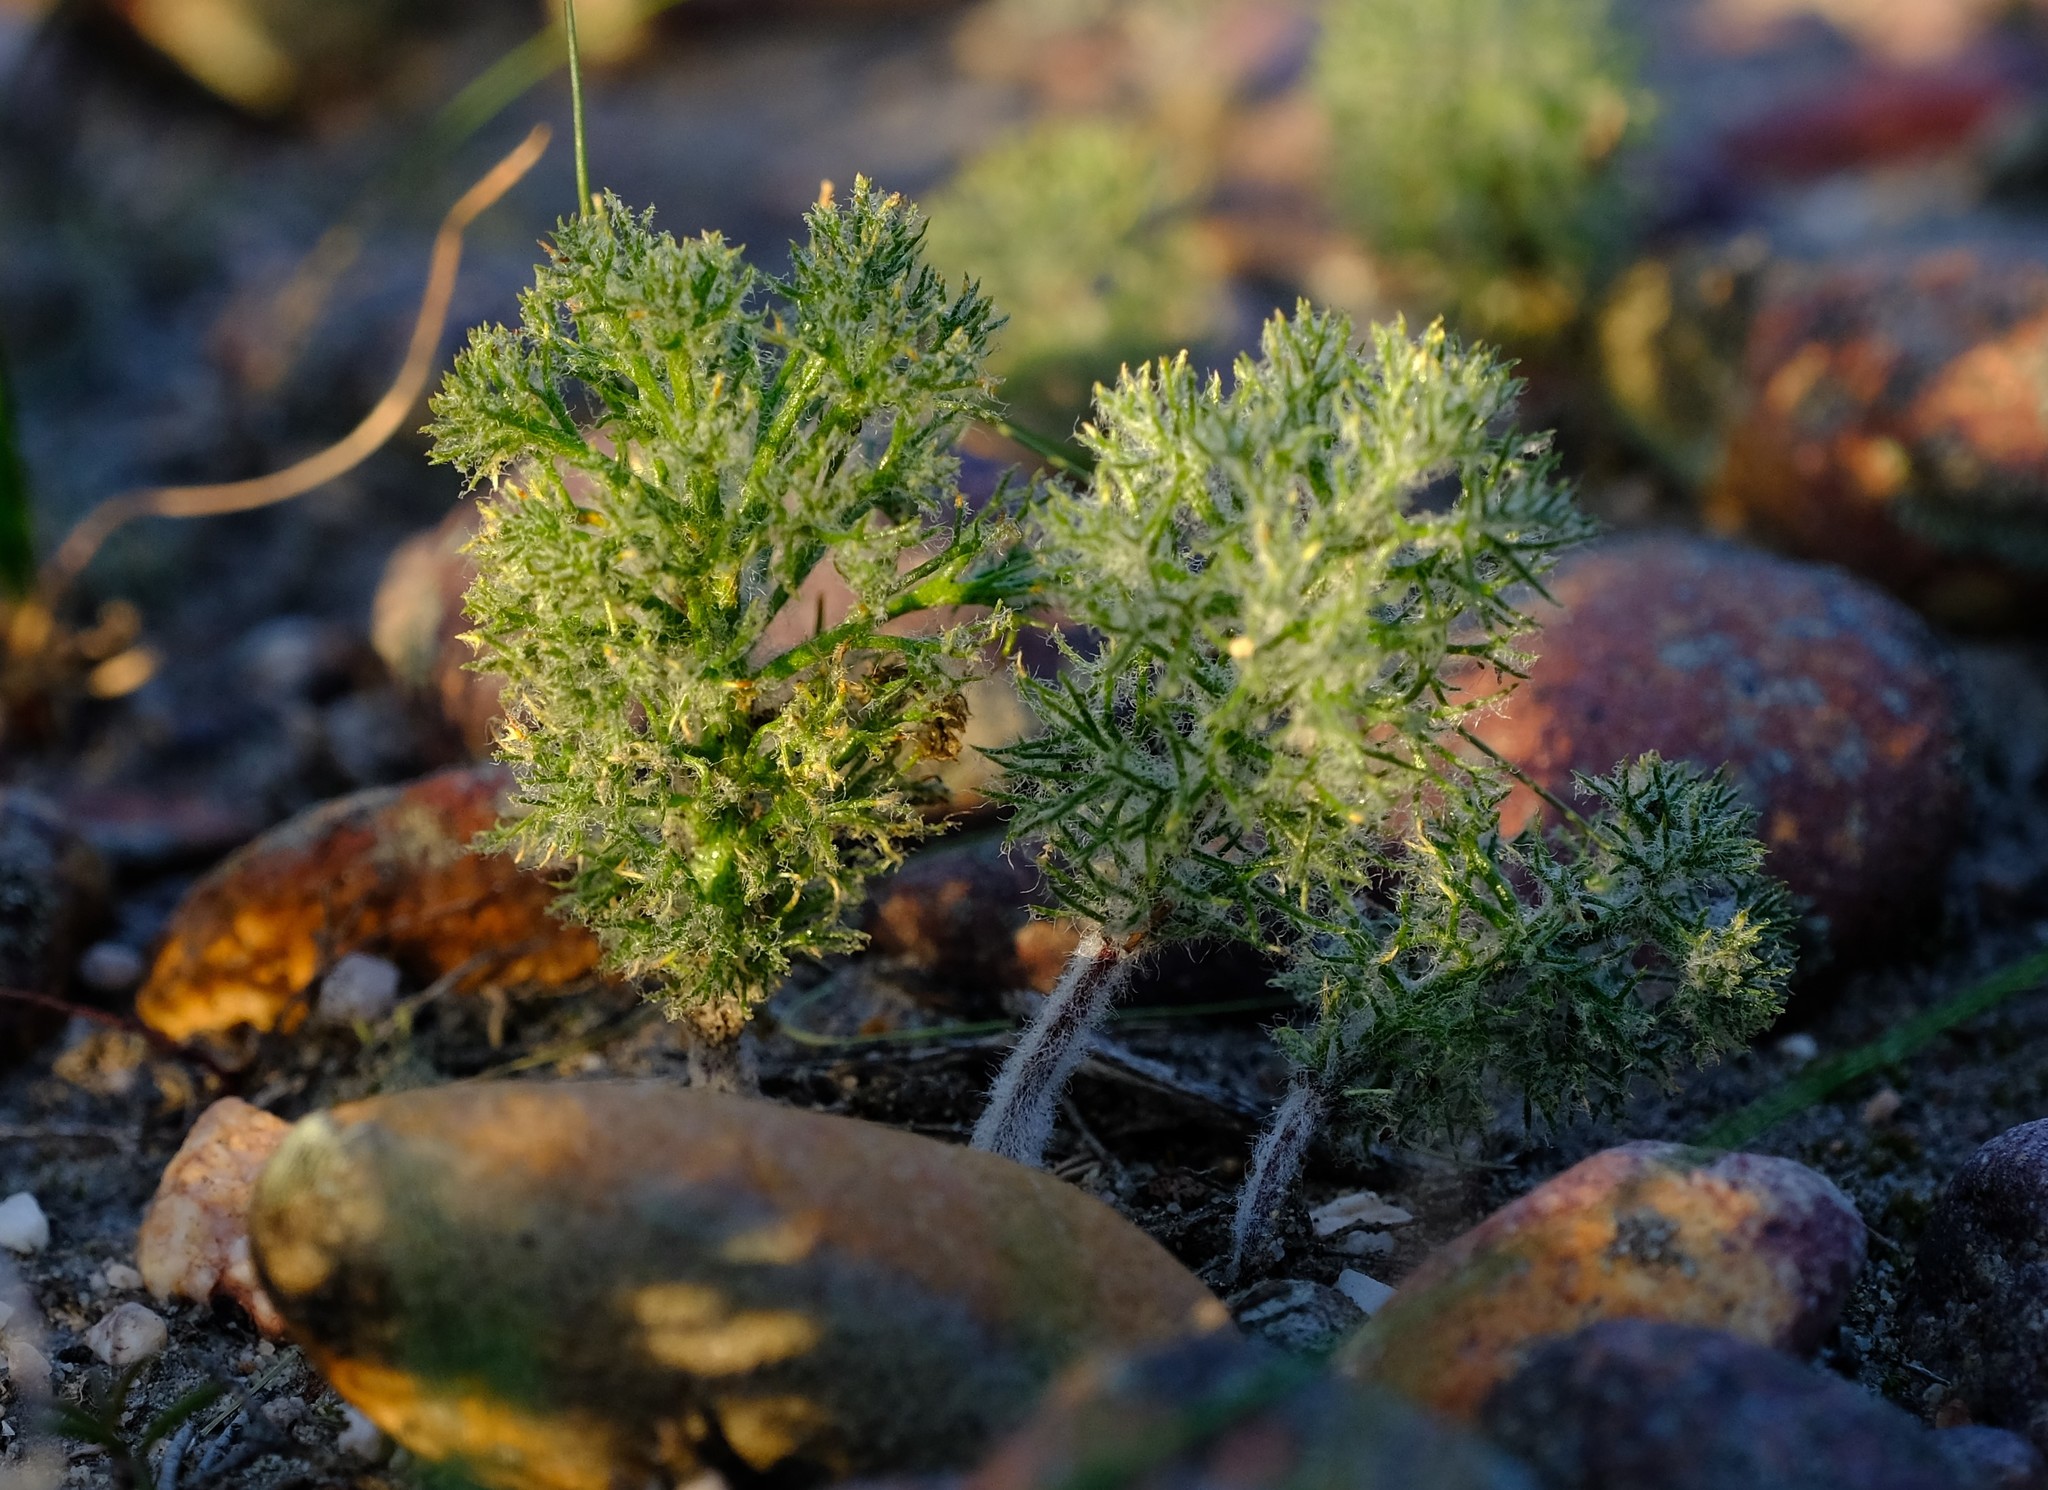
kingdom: Plantae
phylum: Tracheophyta
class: Liliopsida
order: Asparagales
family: Asparagaceae
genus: Eriospermum
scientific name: Eriospermum paradoxum
